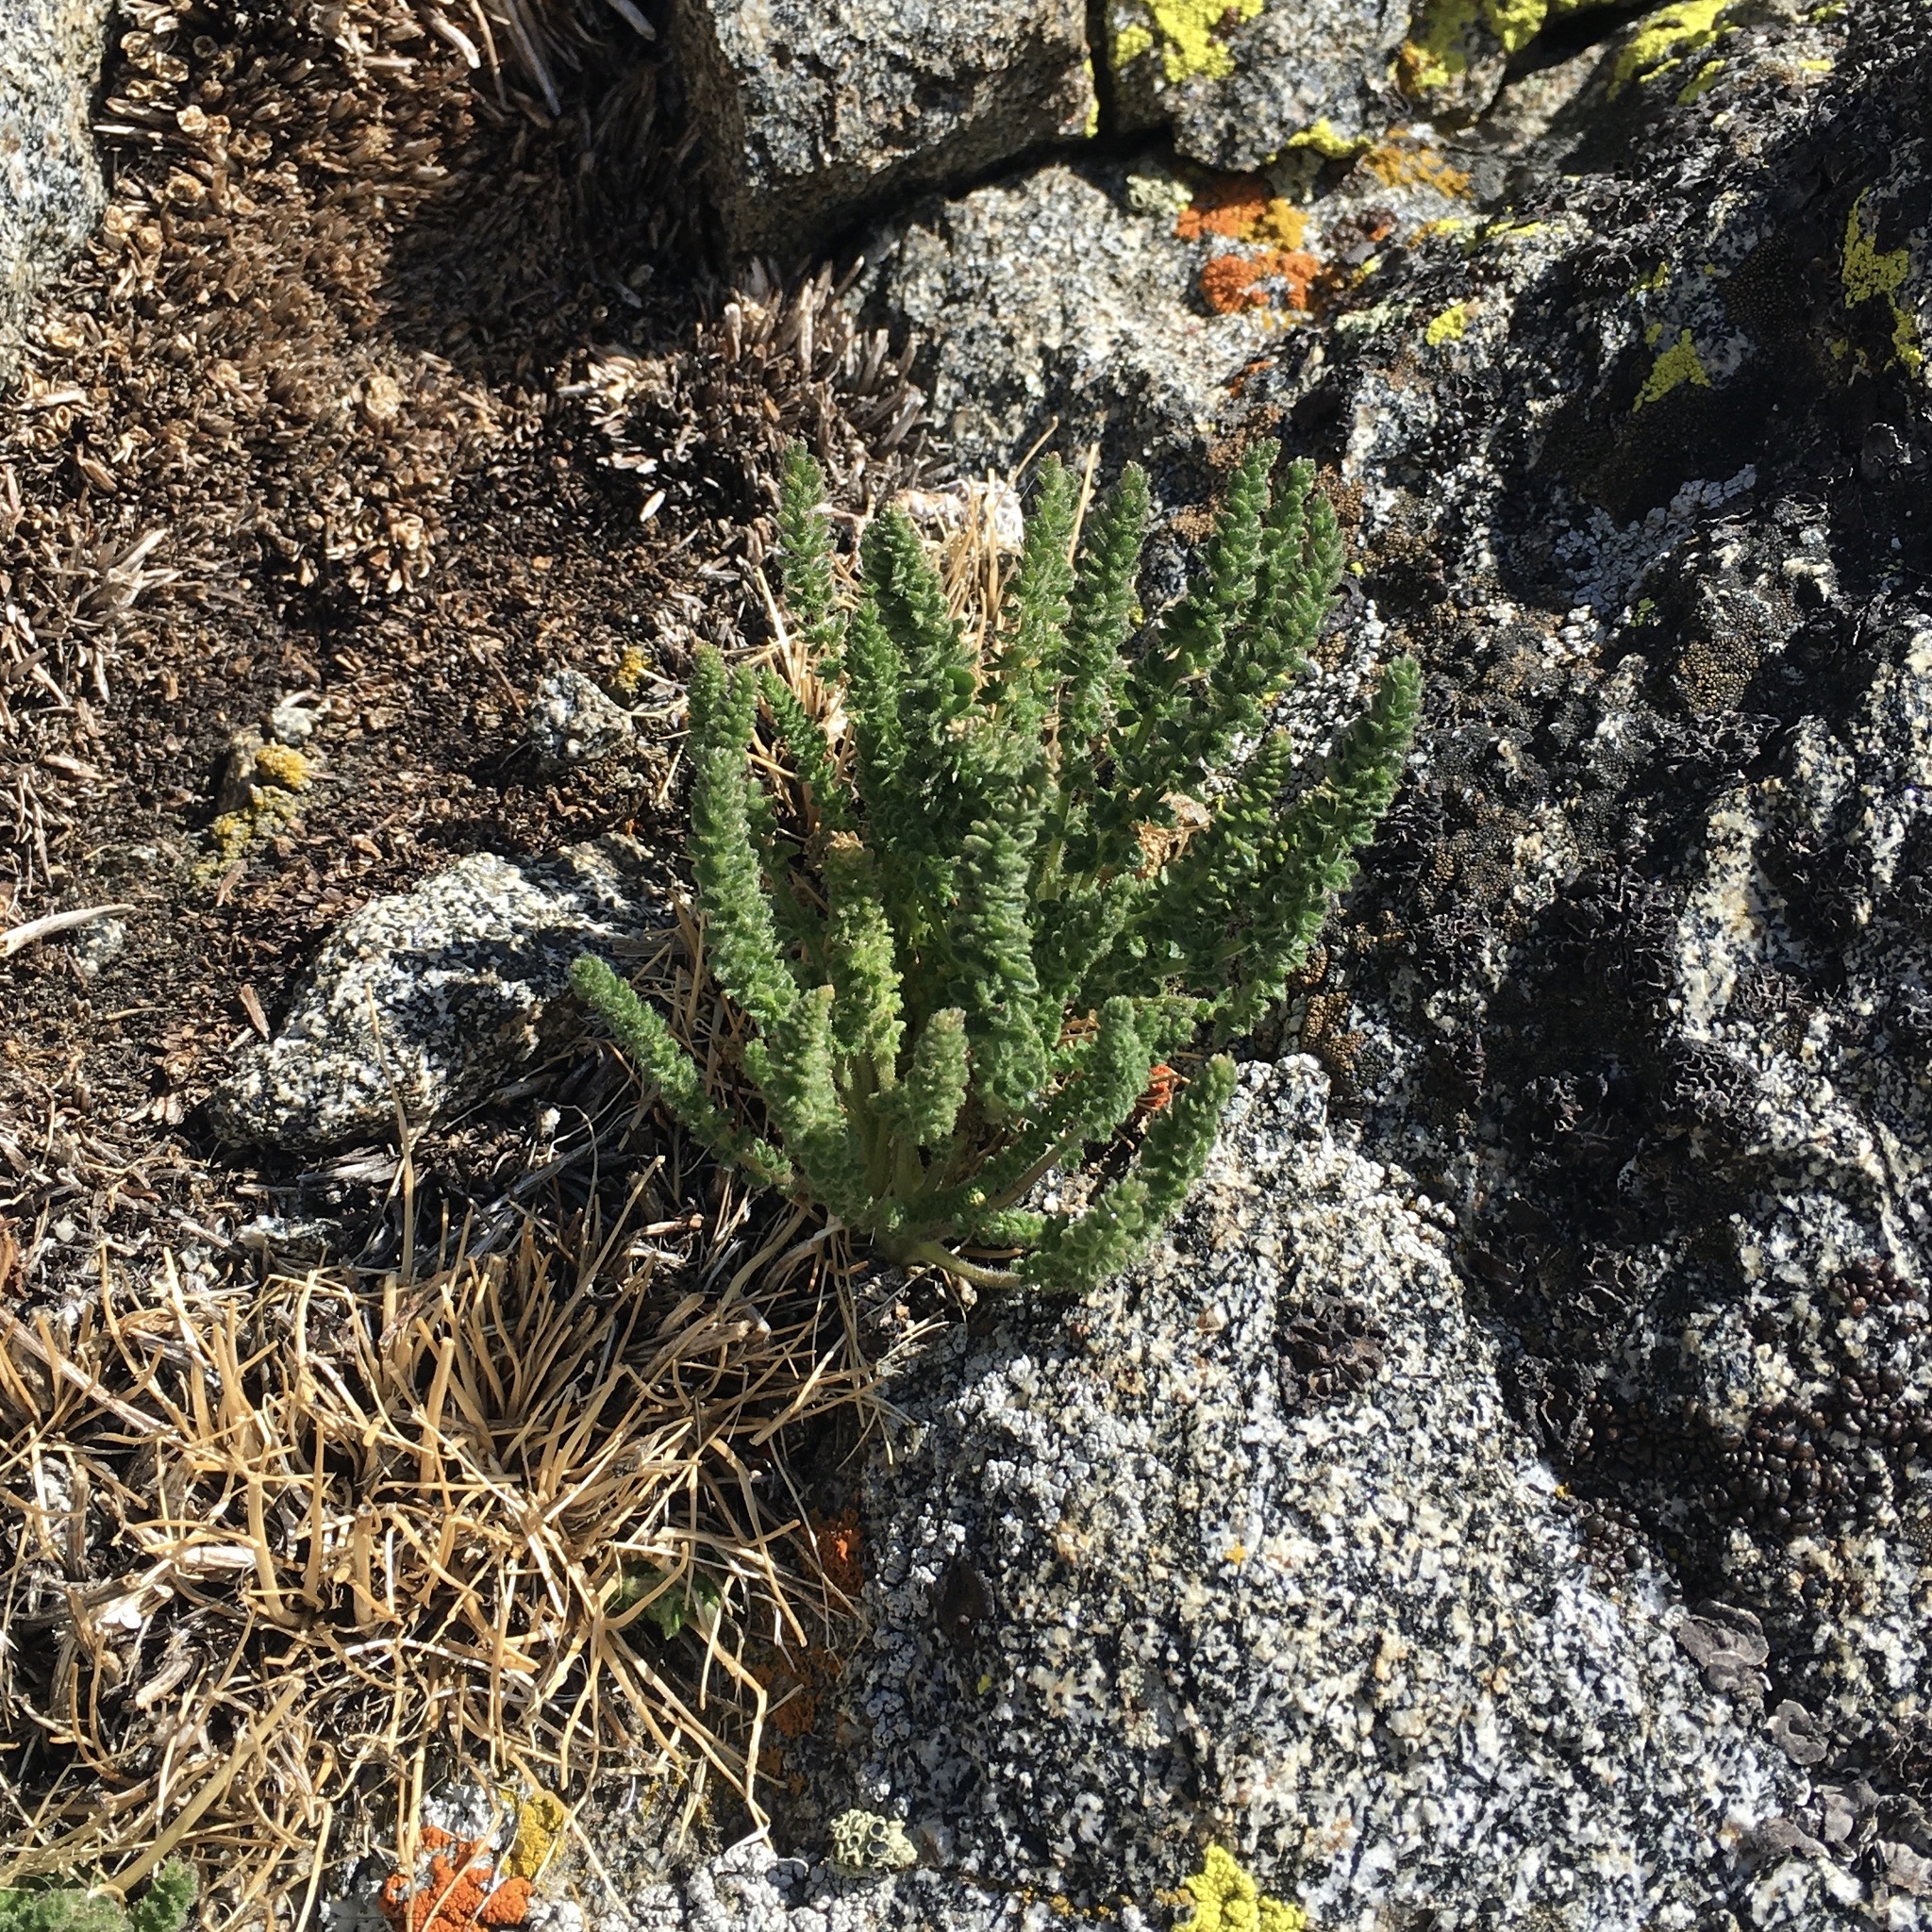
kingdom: Plantae
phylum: Tracheophyta
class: Magnoliopsida
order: Ericales
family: Polemoniaceae
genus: Polemonium
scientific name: Polemonium eximium
